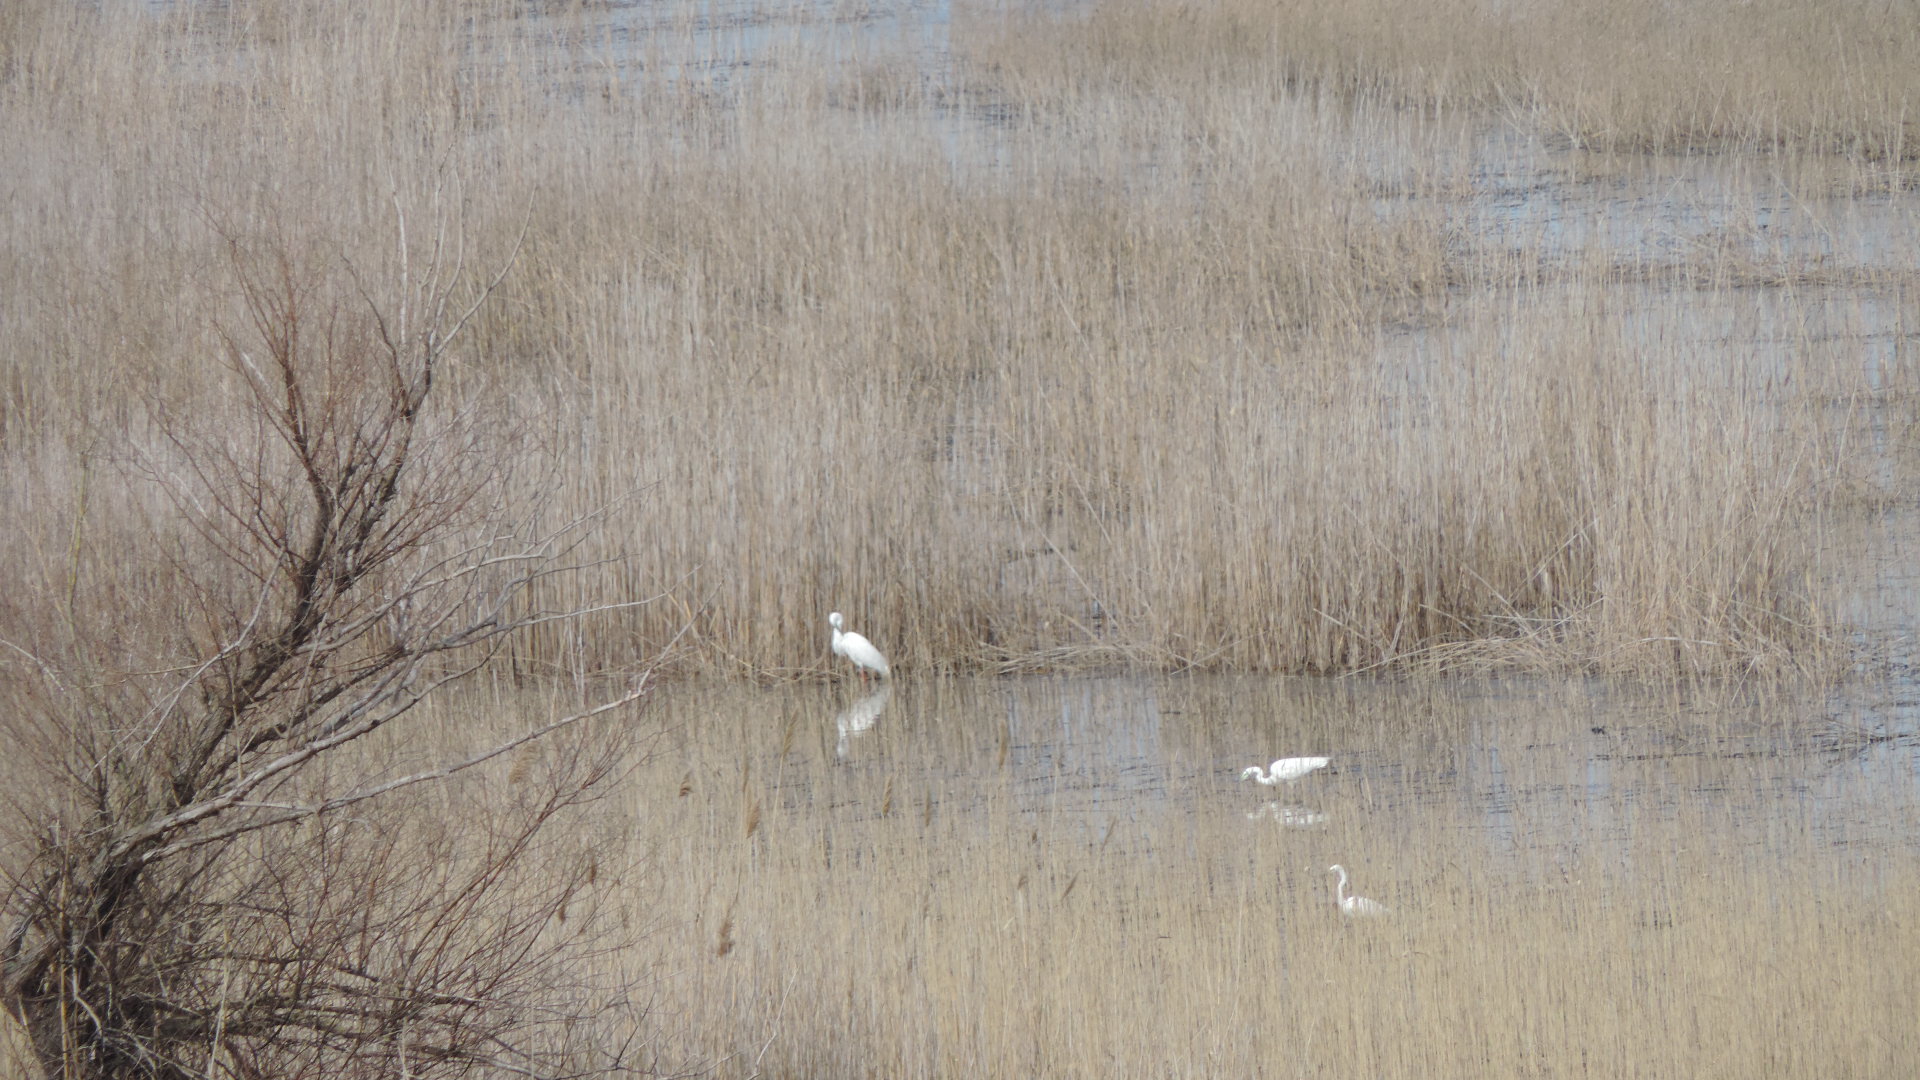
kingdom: Animalia
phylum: Chordata
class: Aves
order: Pelecaniformes
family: Ardeidae
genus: Ardea
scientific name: Ardea alba
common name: Great egret
